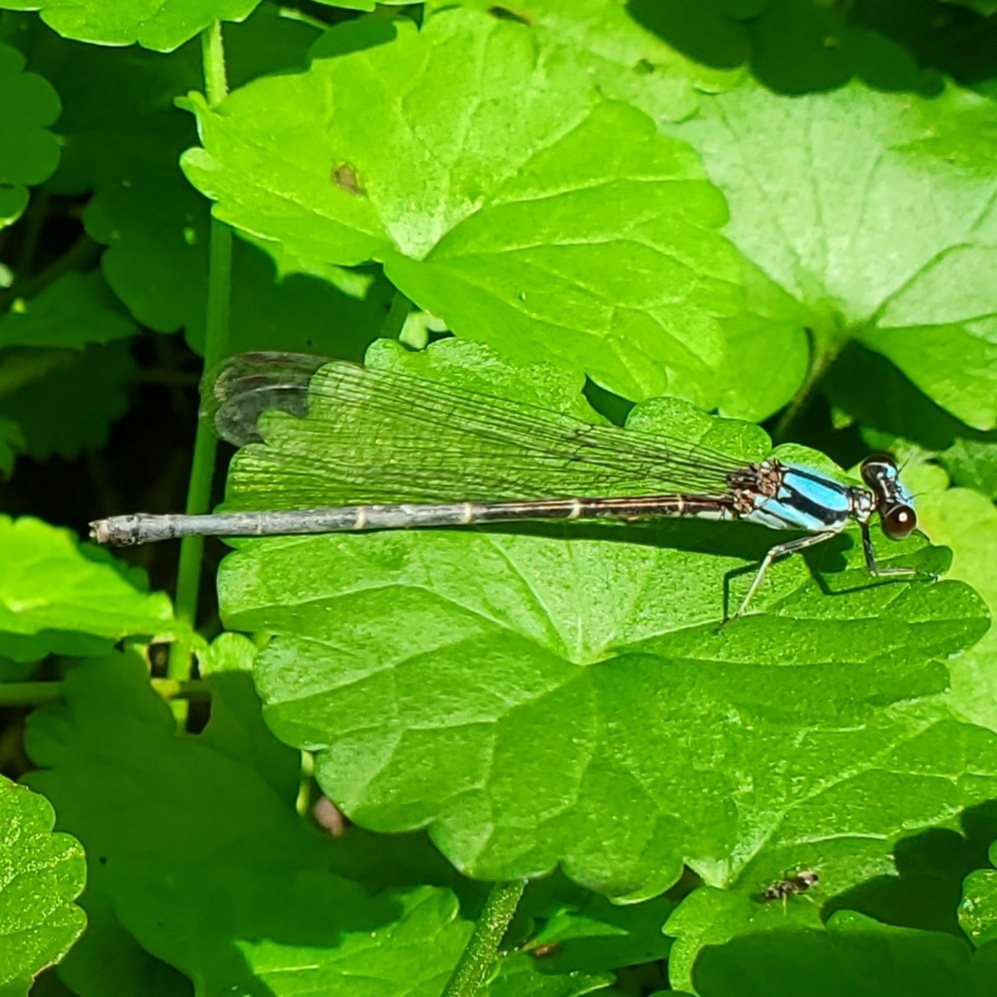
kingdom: Animalia
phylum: Arthropoda
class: Insecta
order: Odonata
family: Coenagrionidae
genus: Argia
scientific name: Argia tibialis
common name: Blue-tipped dancer
